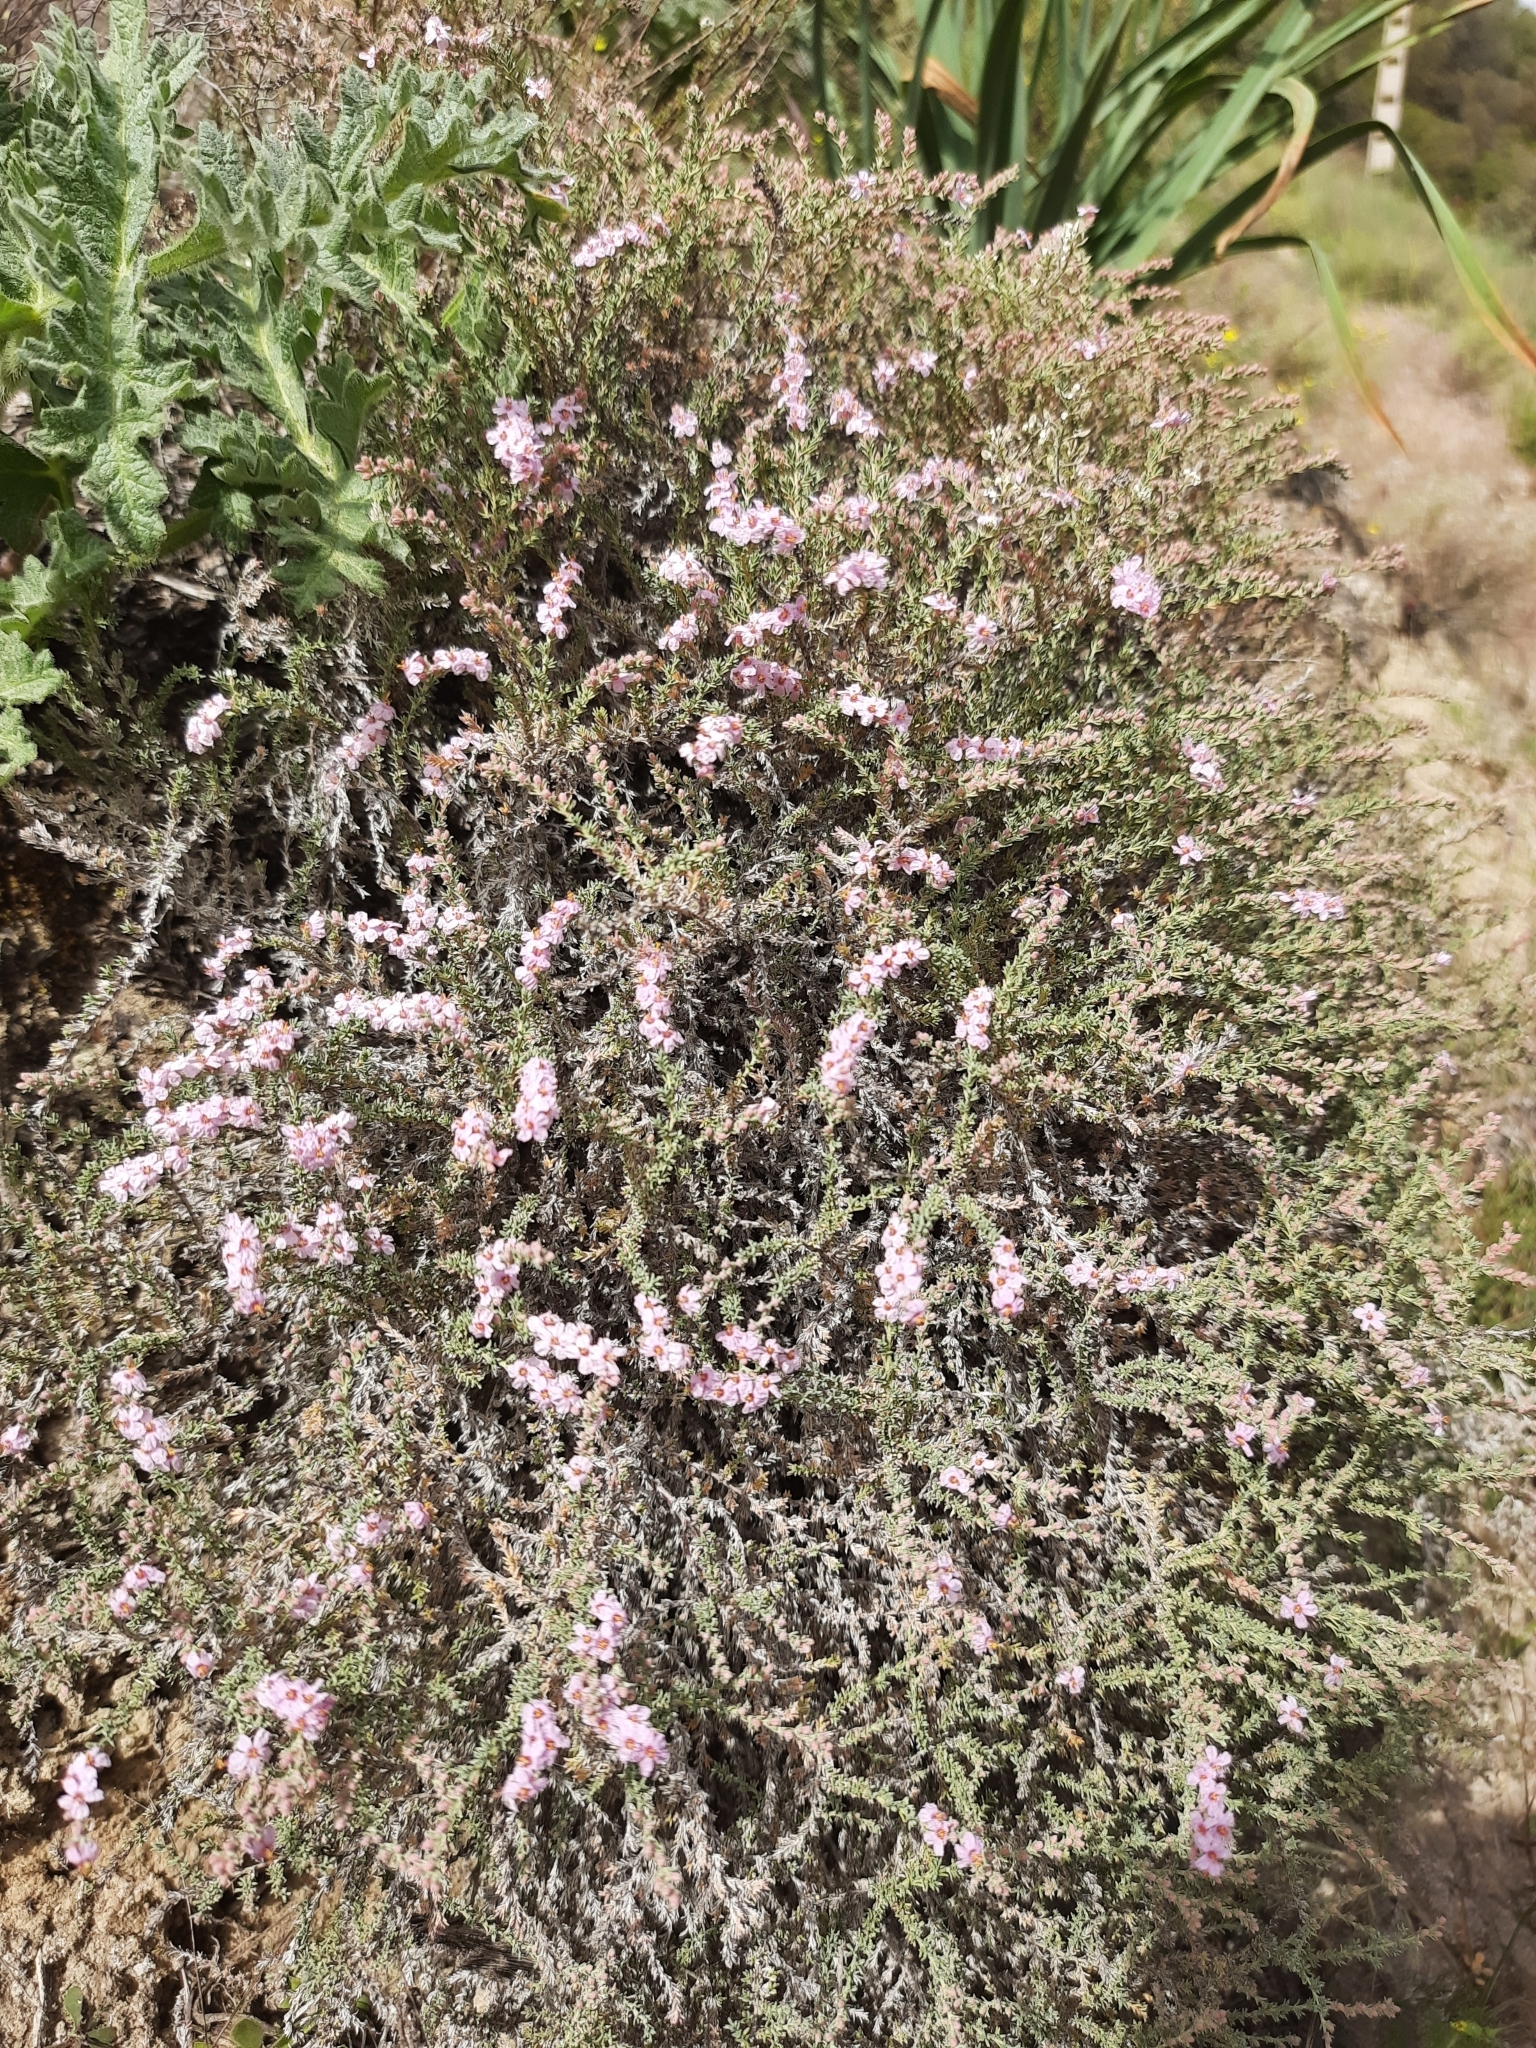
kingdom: Plantae
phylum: Tracheophyta
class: Magnoliopsida
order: Caryophyllales
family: Frankeniaceae
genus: Frankenia
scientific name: Frankenia thymifolia
